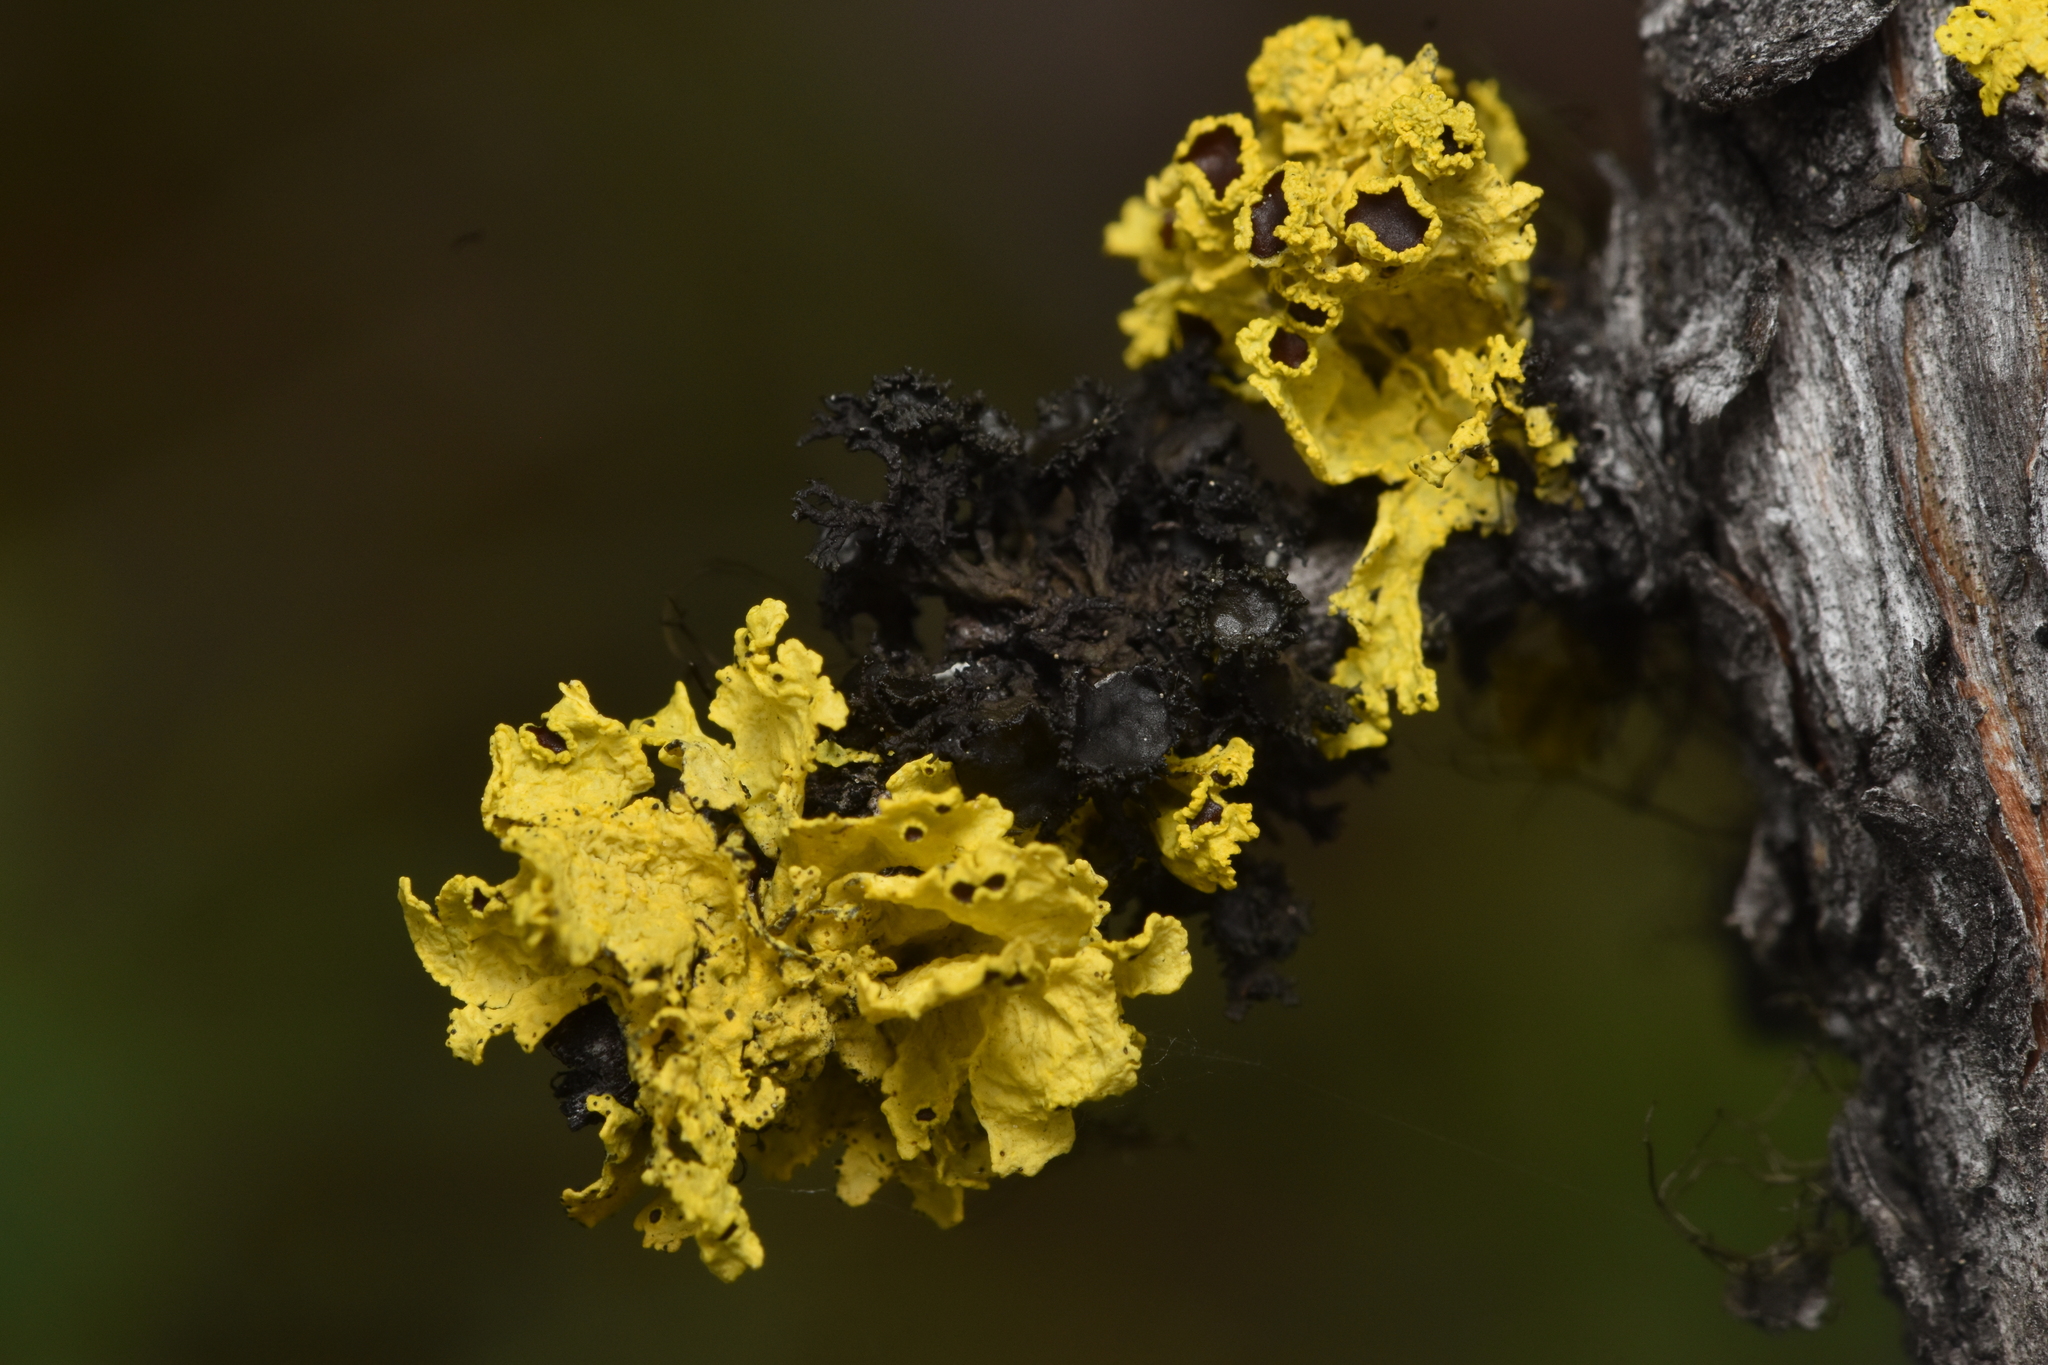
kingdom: Fungi
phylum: Ascomycota
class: Lecanoromycetes
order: Lecanorales
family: Parmeliaceae
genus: Vulpicida
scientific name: Vulpicida canadensis
